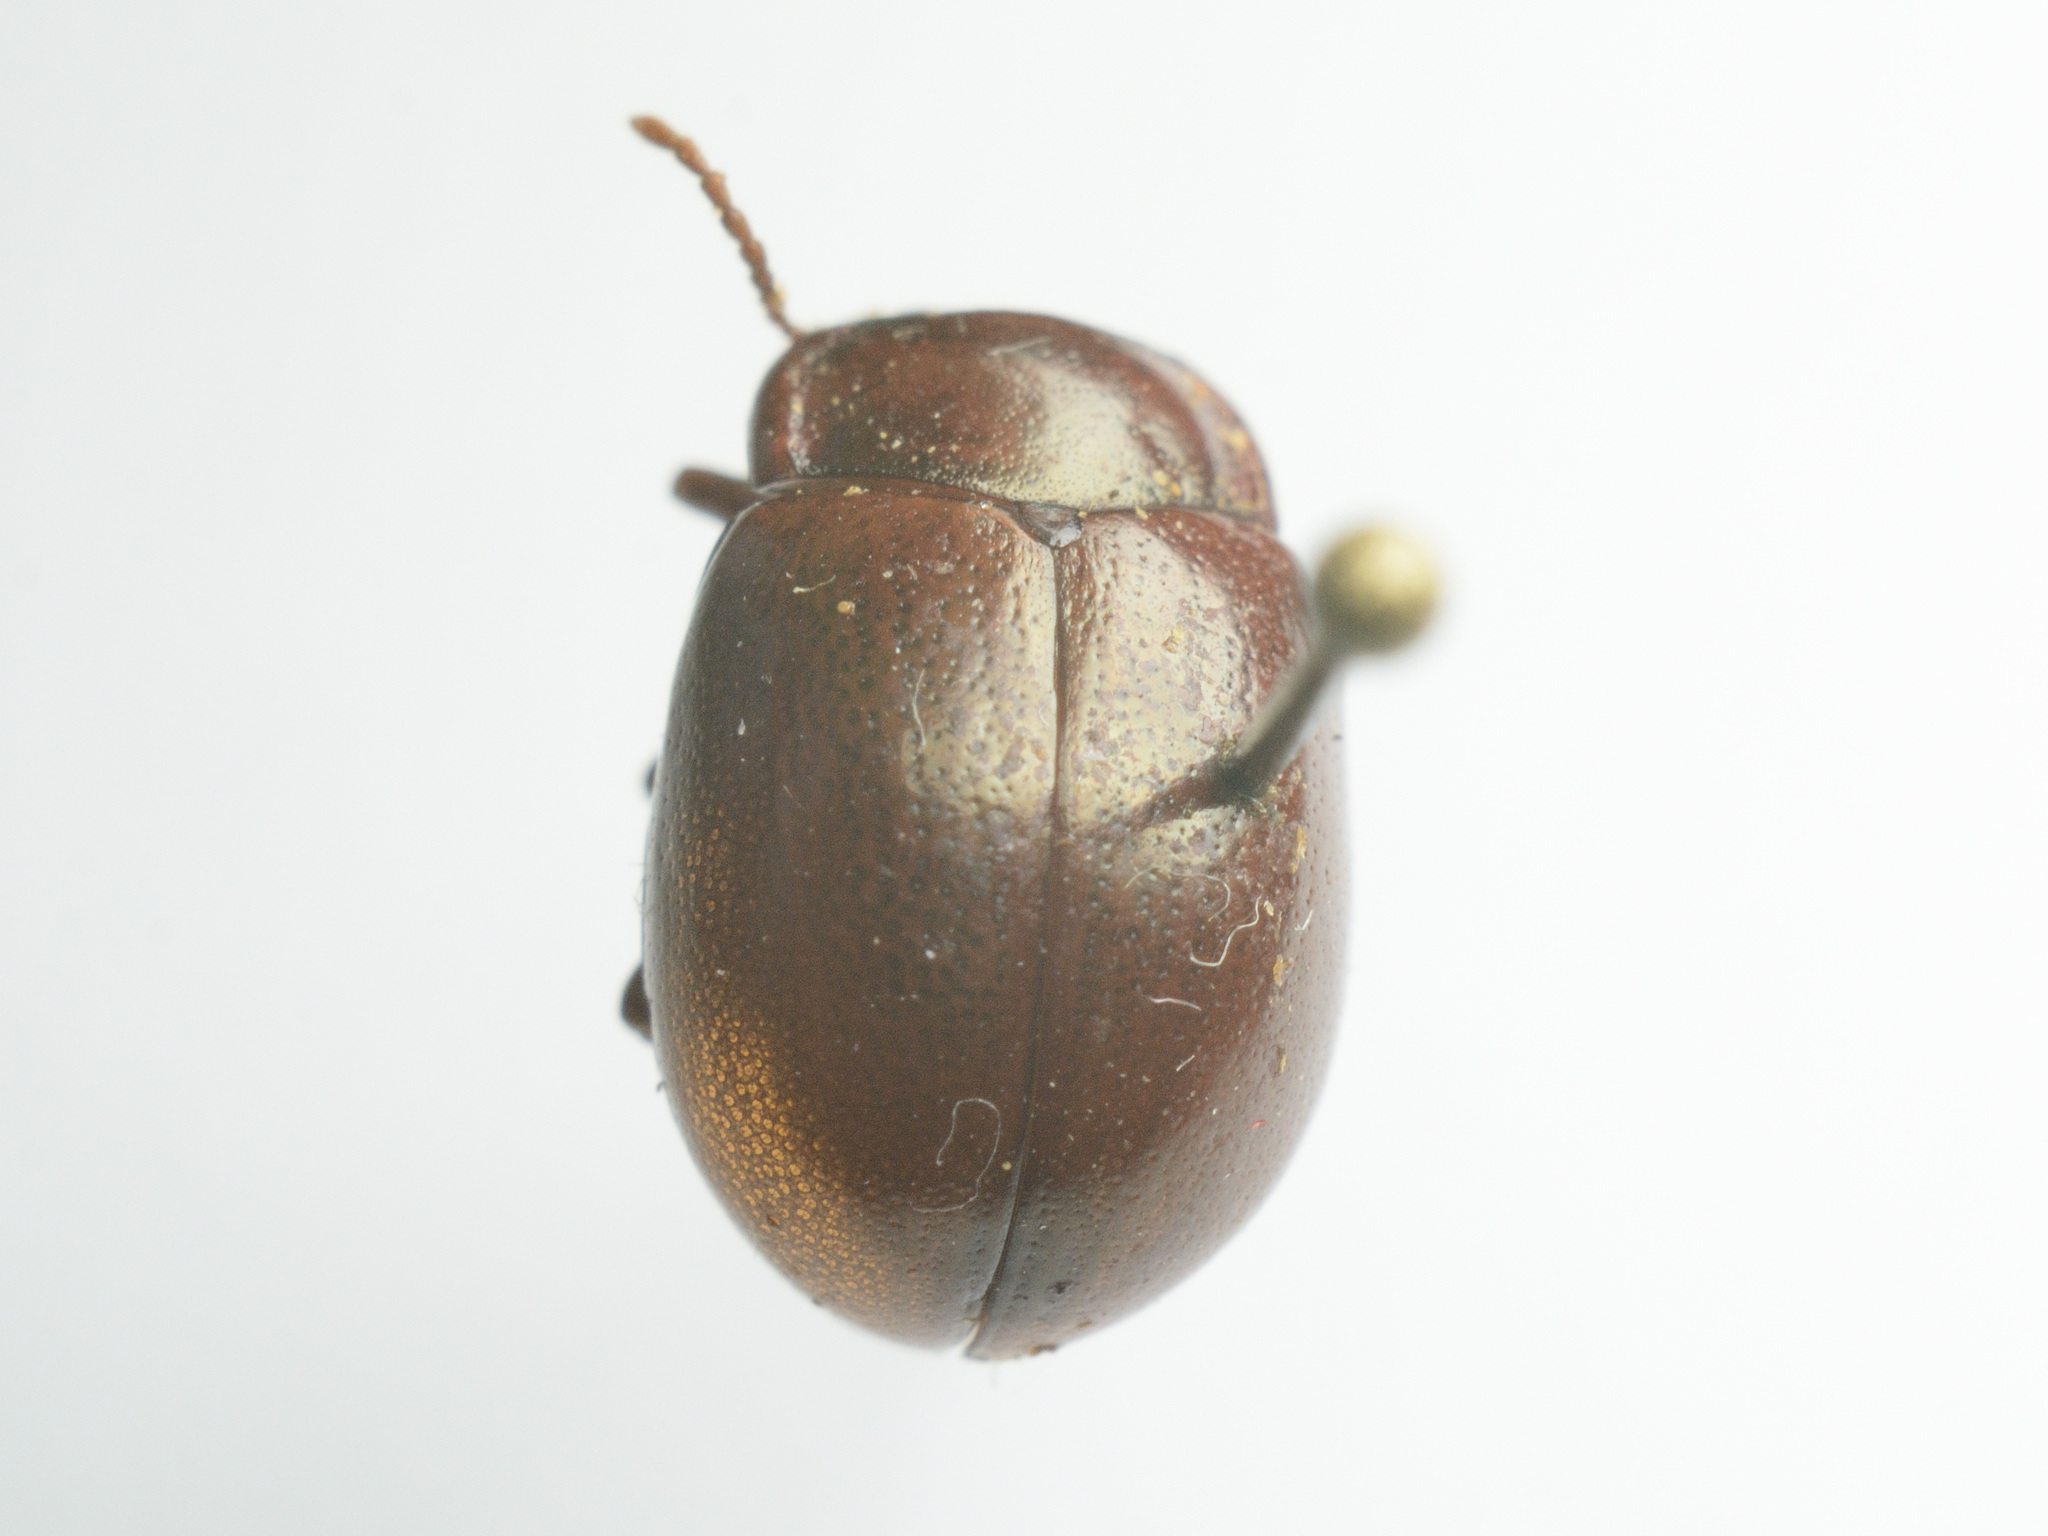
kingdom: Animalia
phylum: Arthropoda
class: Insecta
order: Coleoptera
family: Chrysomelidae
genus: Chrysolina
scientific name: Chrysolina staphylaea
